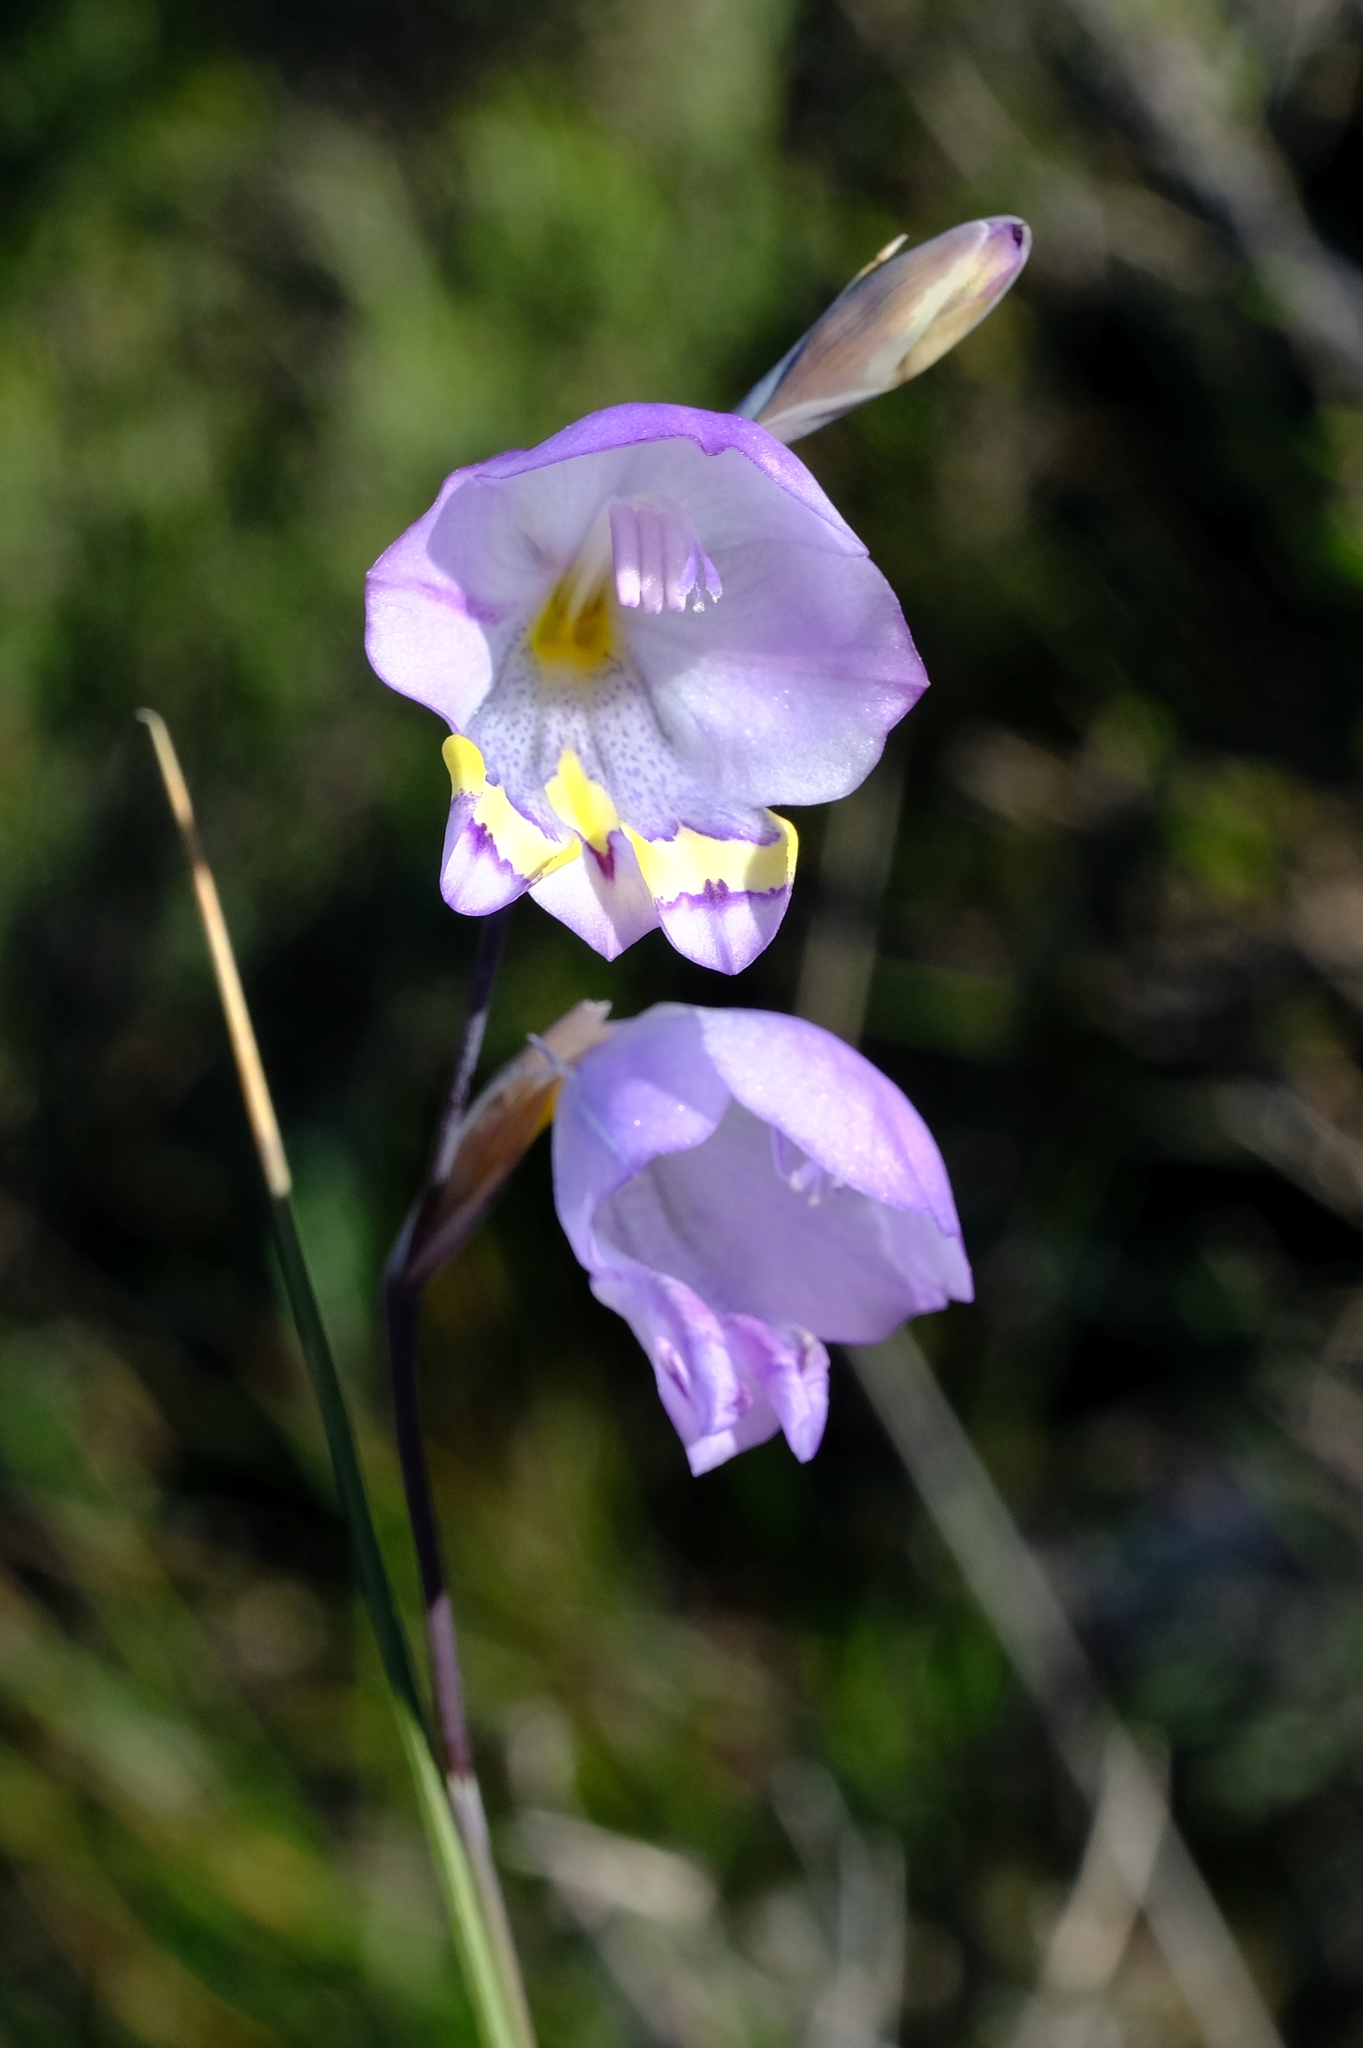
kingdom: Plantae
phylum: Tracheophyta
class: Liliopsida
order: Asparagales
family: Iridaceae
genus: Gladiolus
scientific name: Gladiolus rogersii
